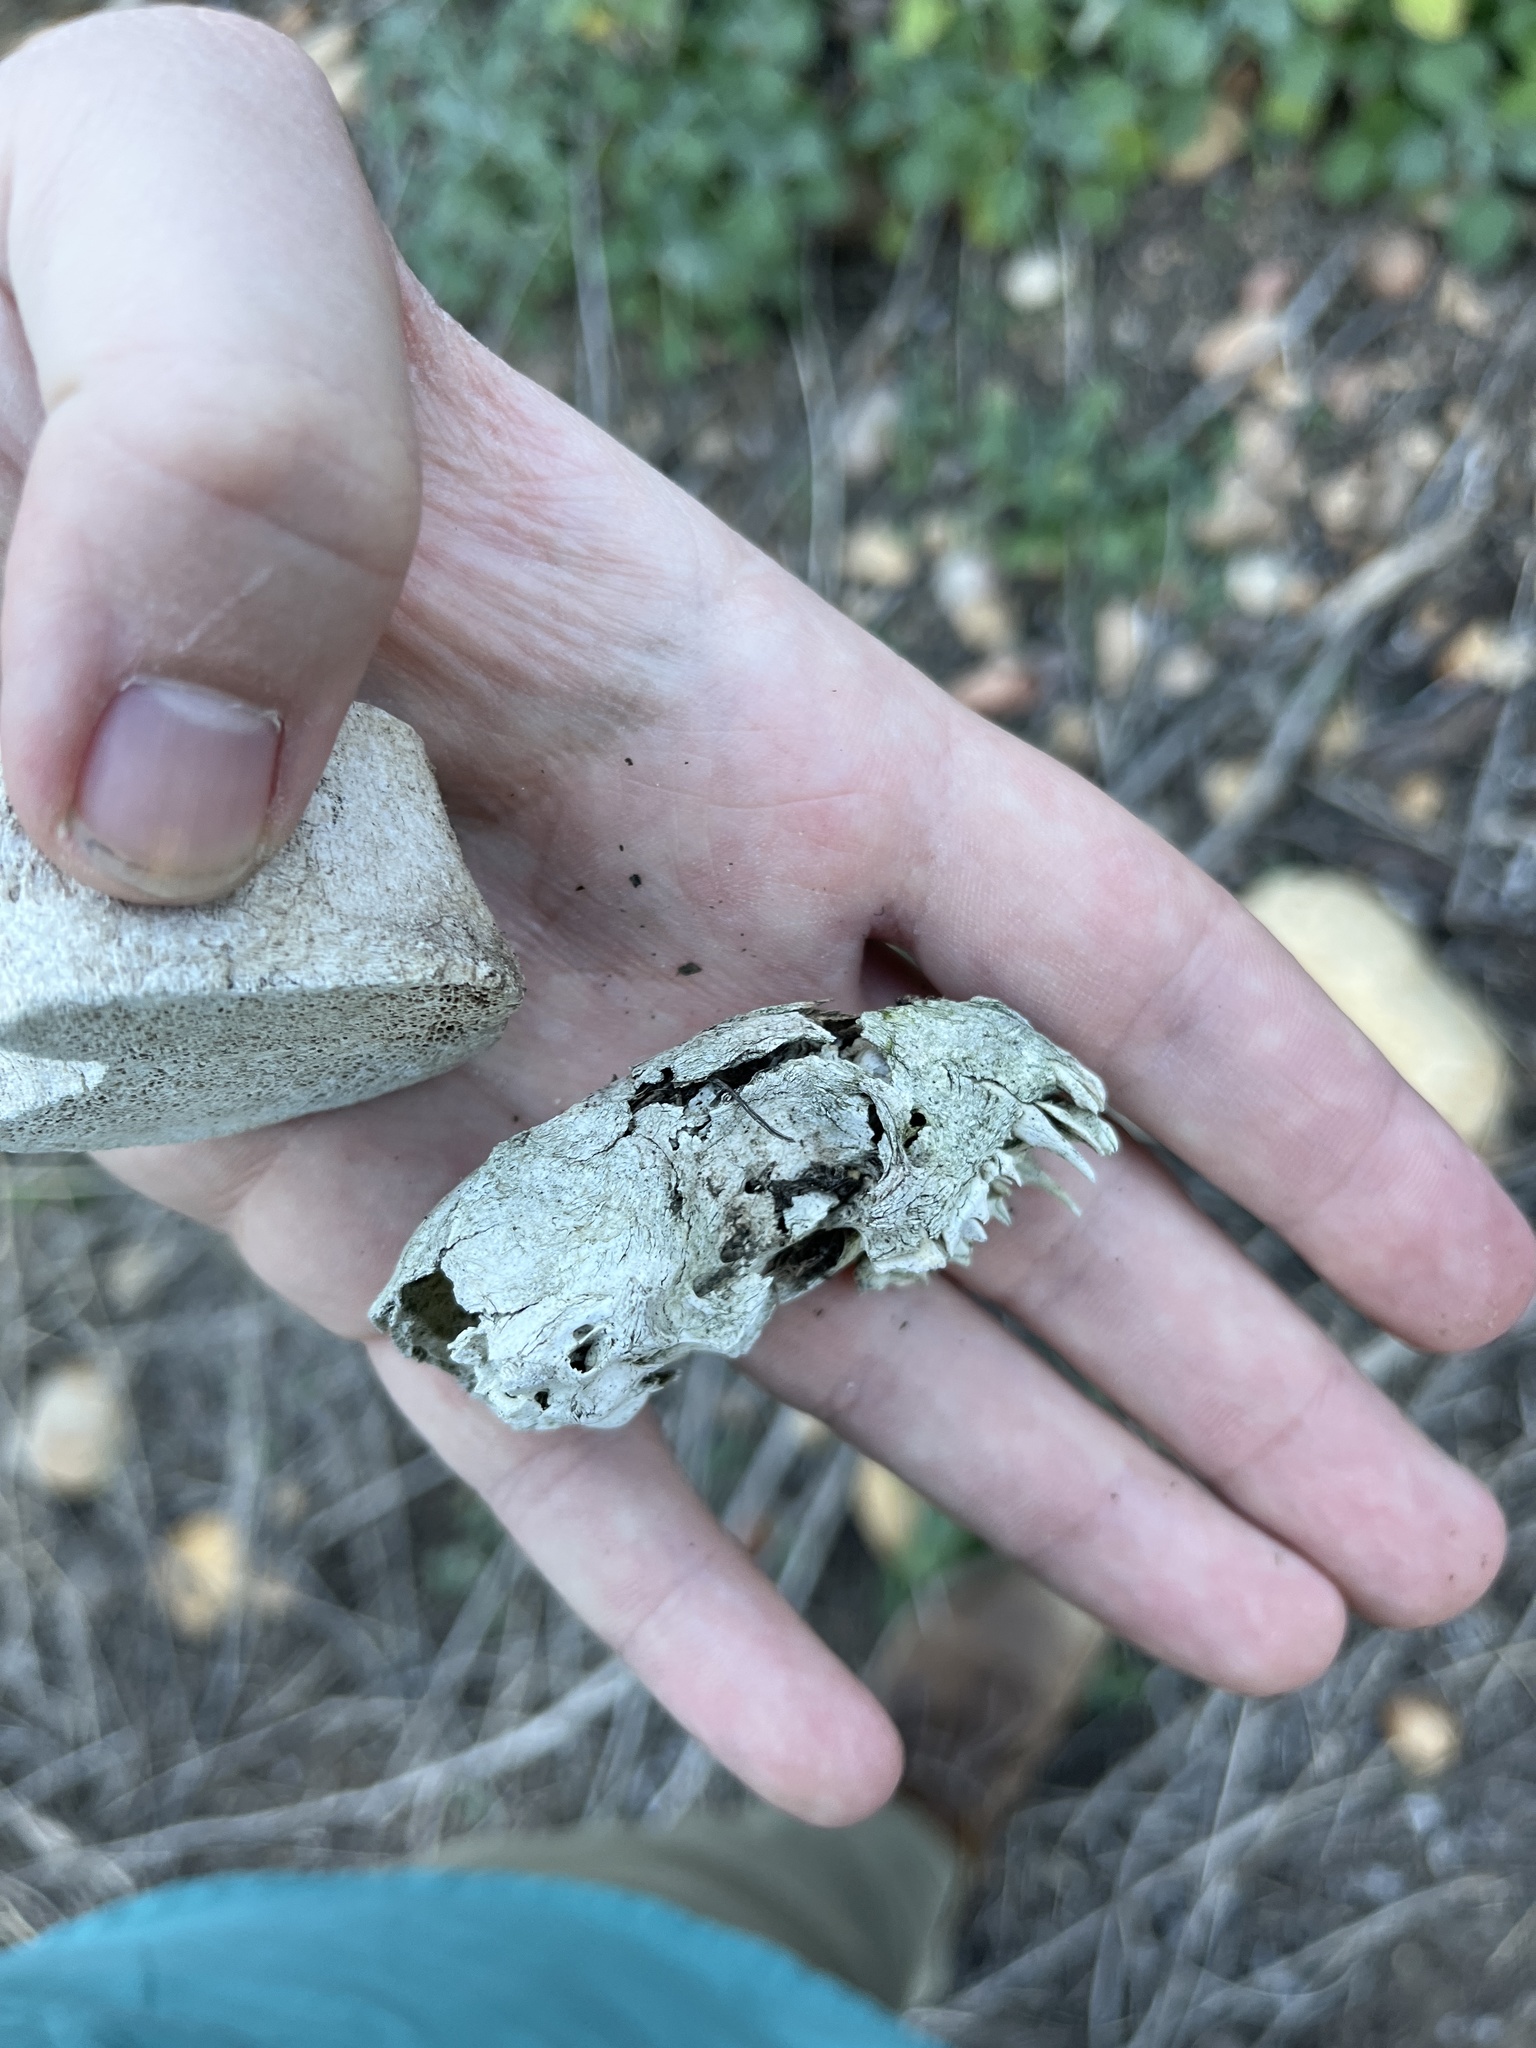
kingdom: Animalia
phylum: Chordata
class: Mammalia
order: Carnivora
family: Mephitidae
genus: Mephitis
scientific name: Mephitis mephitis
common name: Striped skunk
